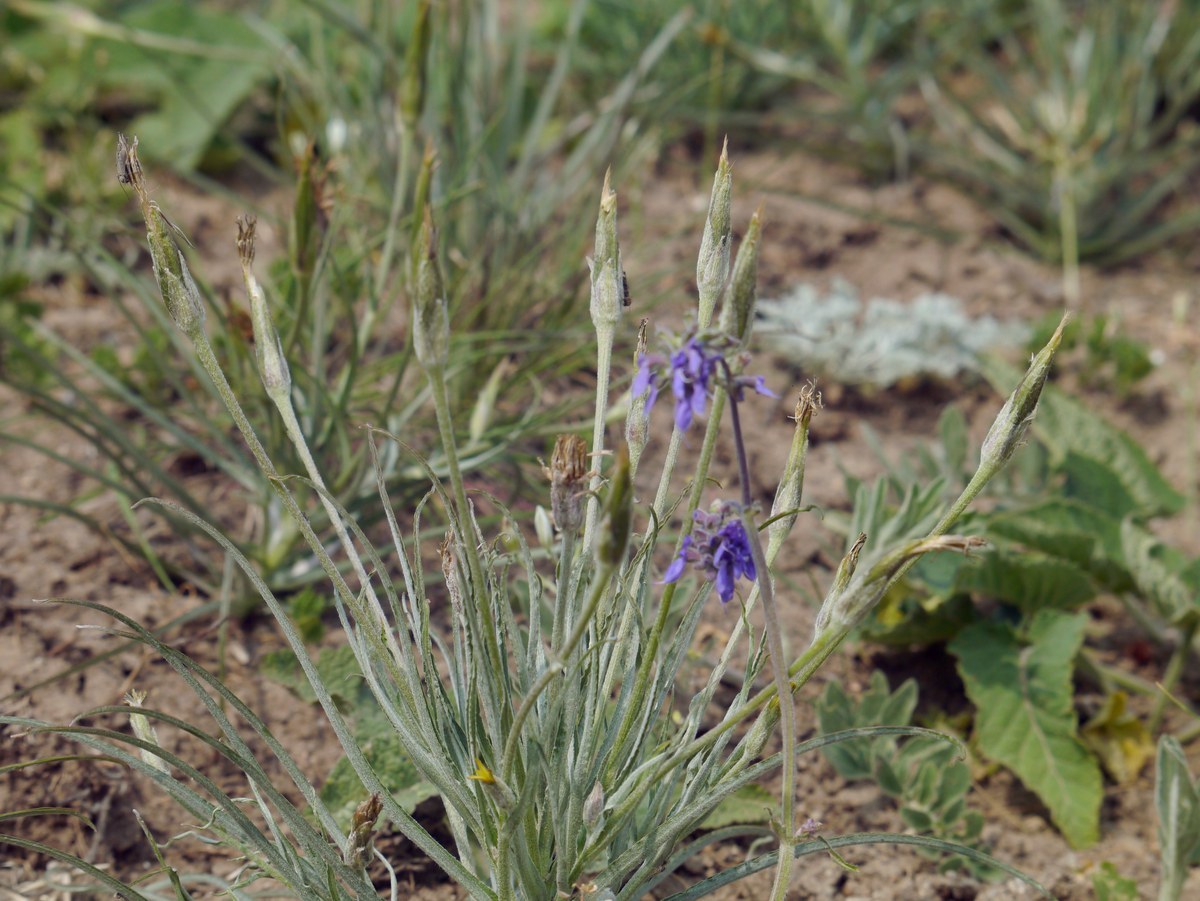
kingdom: Plantae
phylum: Tracheophyta
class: Magnoliopsida
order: Asterales
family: Asteraceae
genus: Candollea
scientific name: Candollea mollis
